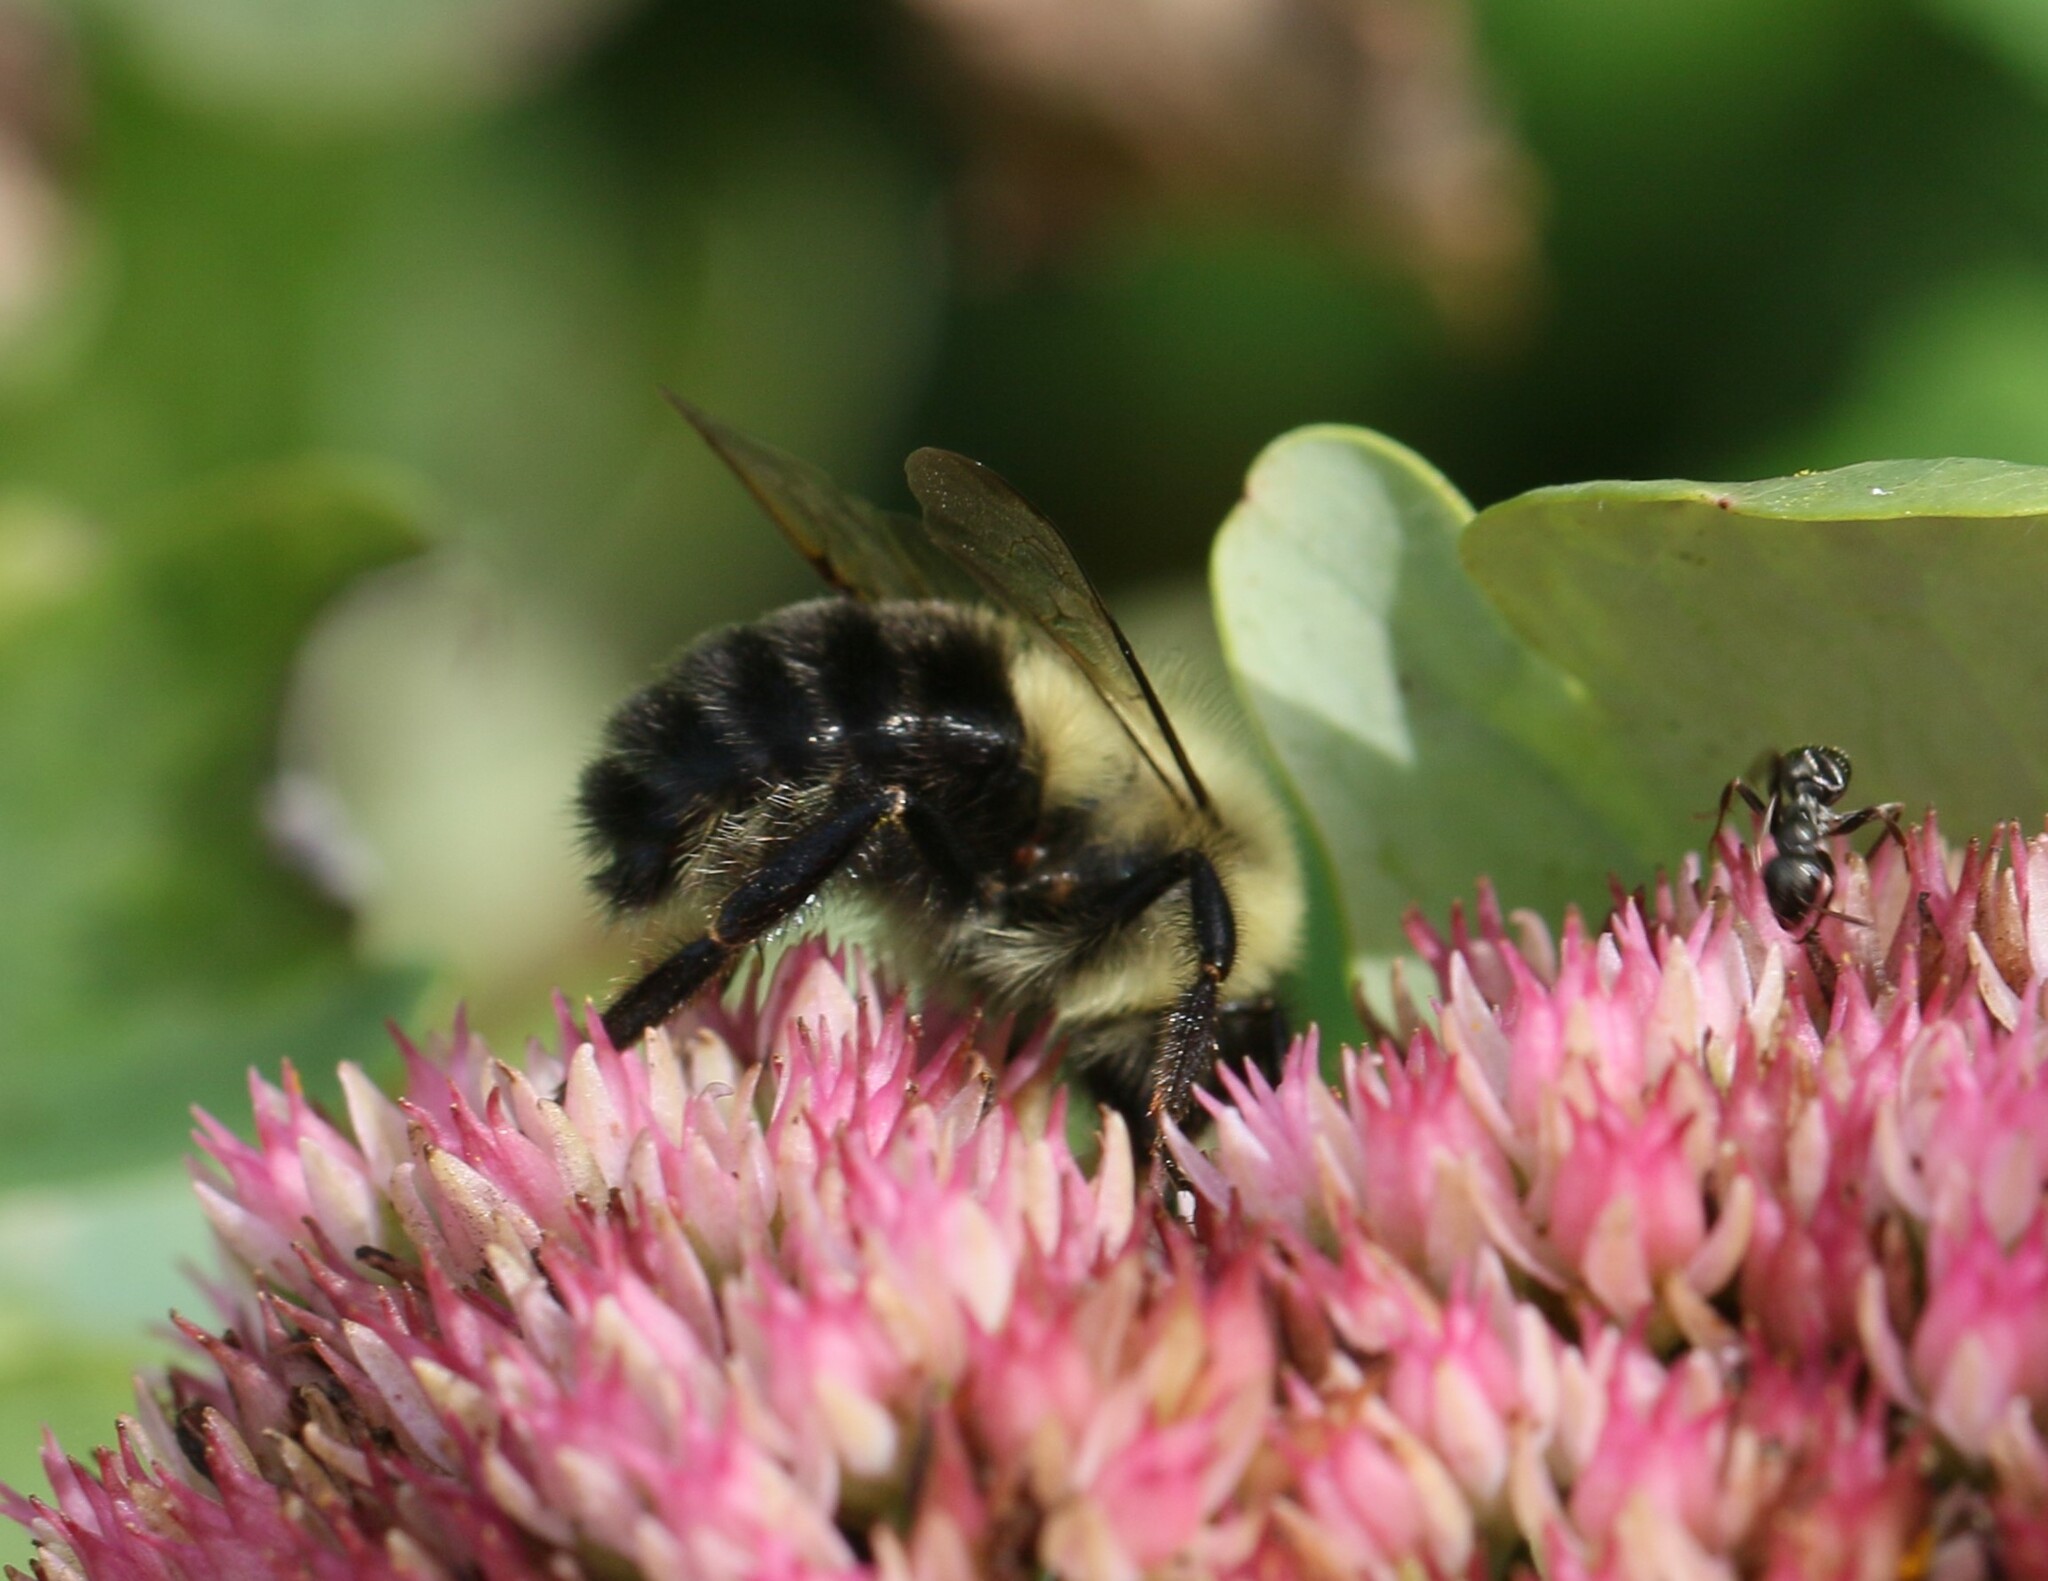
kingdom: Animalia
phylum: Arthropoda
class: Insecta
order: Hymenoptera
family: Apidae
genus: Bombus
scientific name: Bombus impatiens
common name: Common eastern bumble bee
